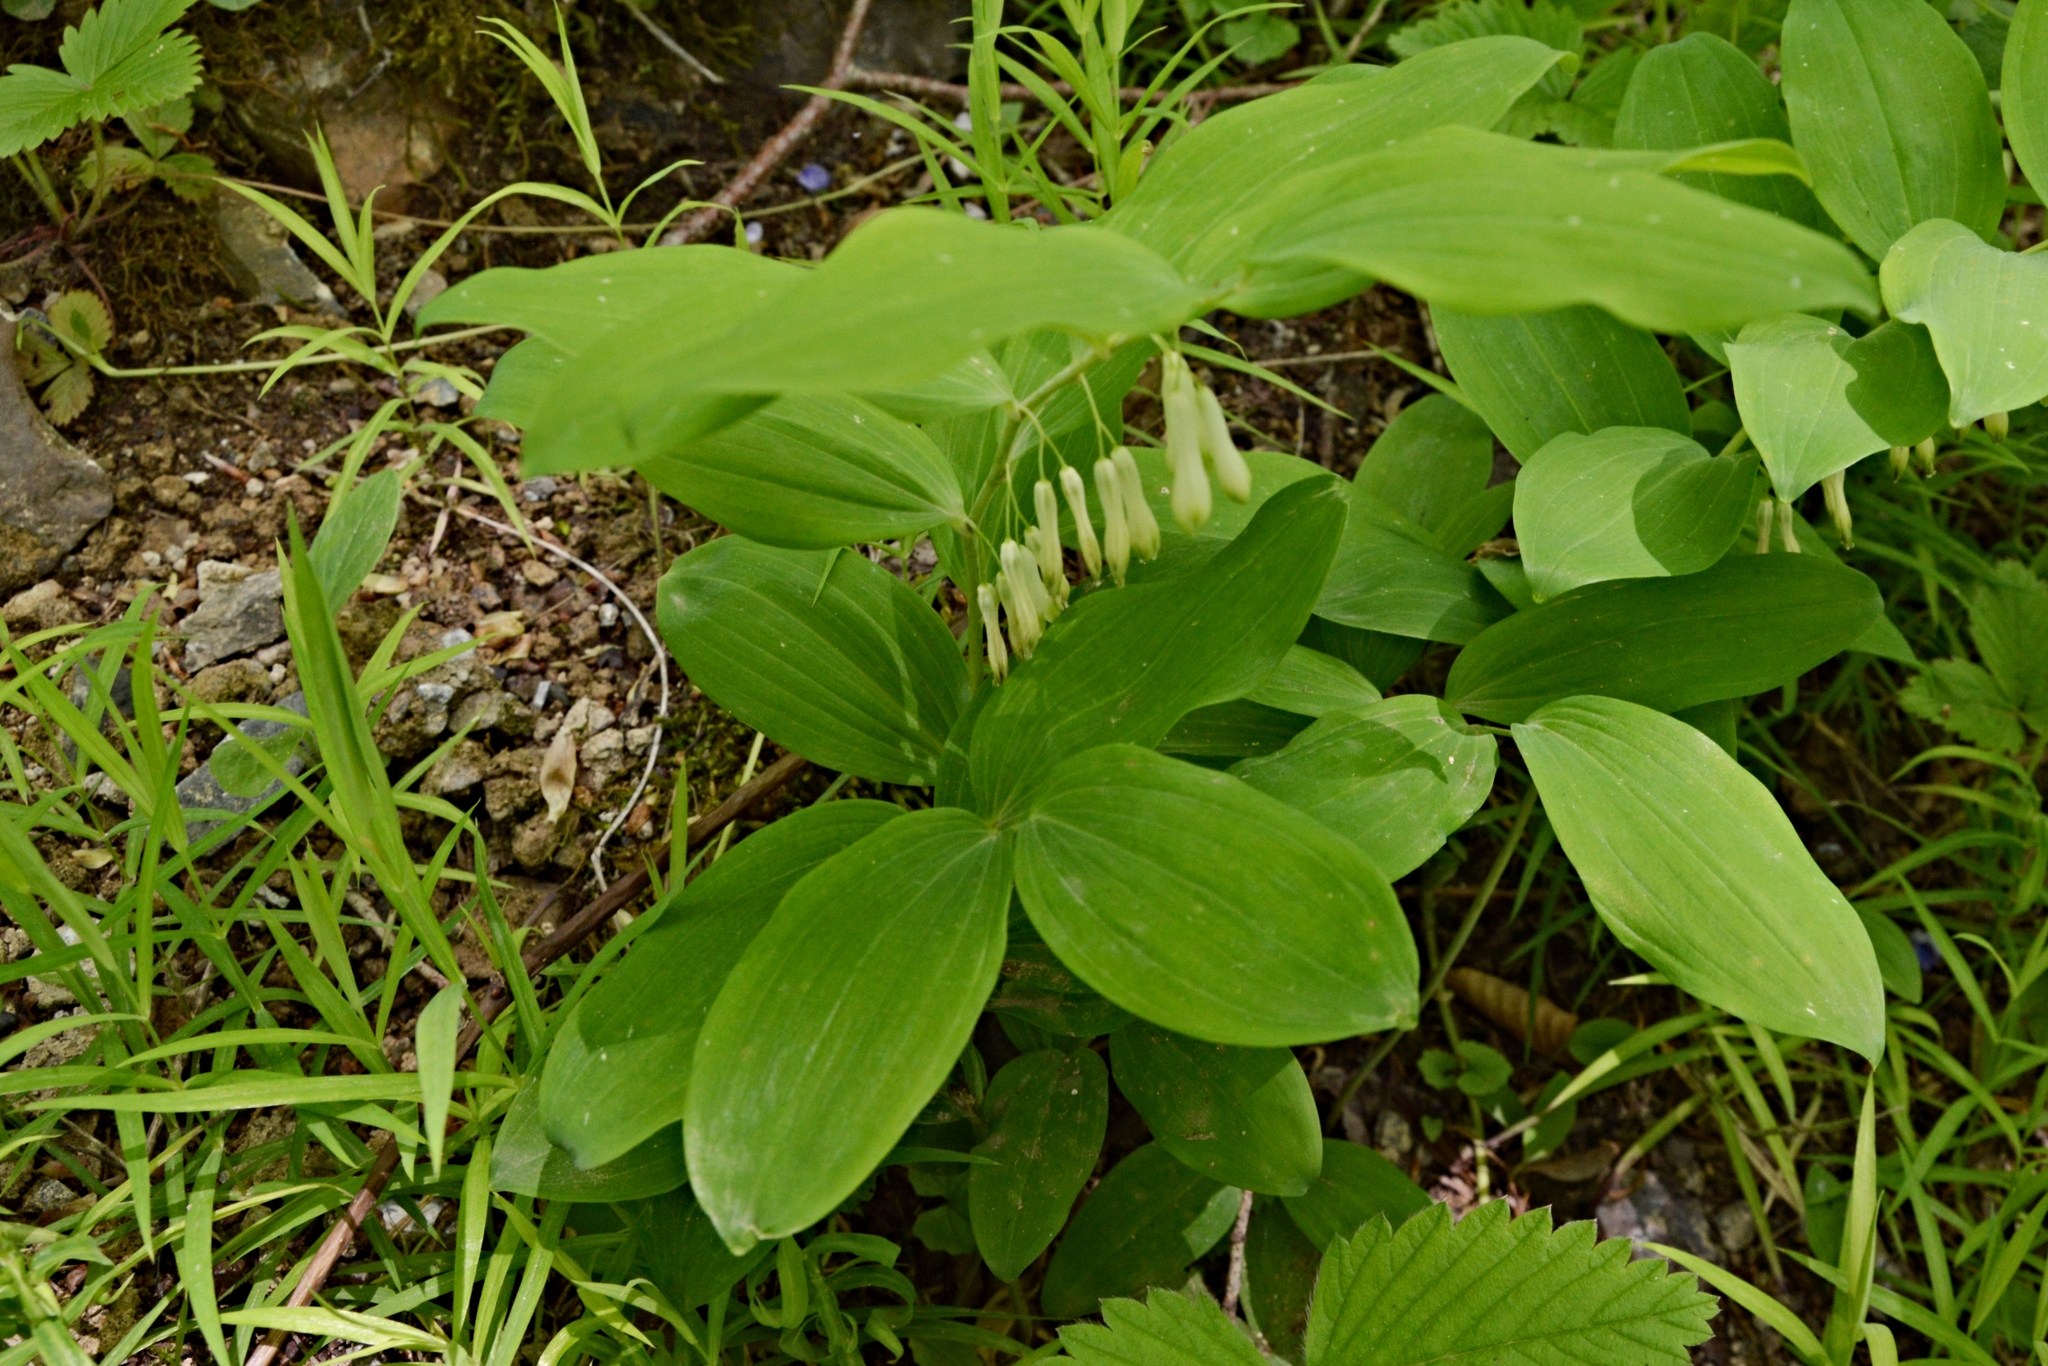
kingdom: Plantae
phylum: Tracheophyta
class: Liliopsida
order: Asparagales
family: Asparagaceae
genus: Polygonatum
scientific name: Polygonatum multiflorum
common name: Solomon's-seal
